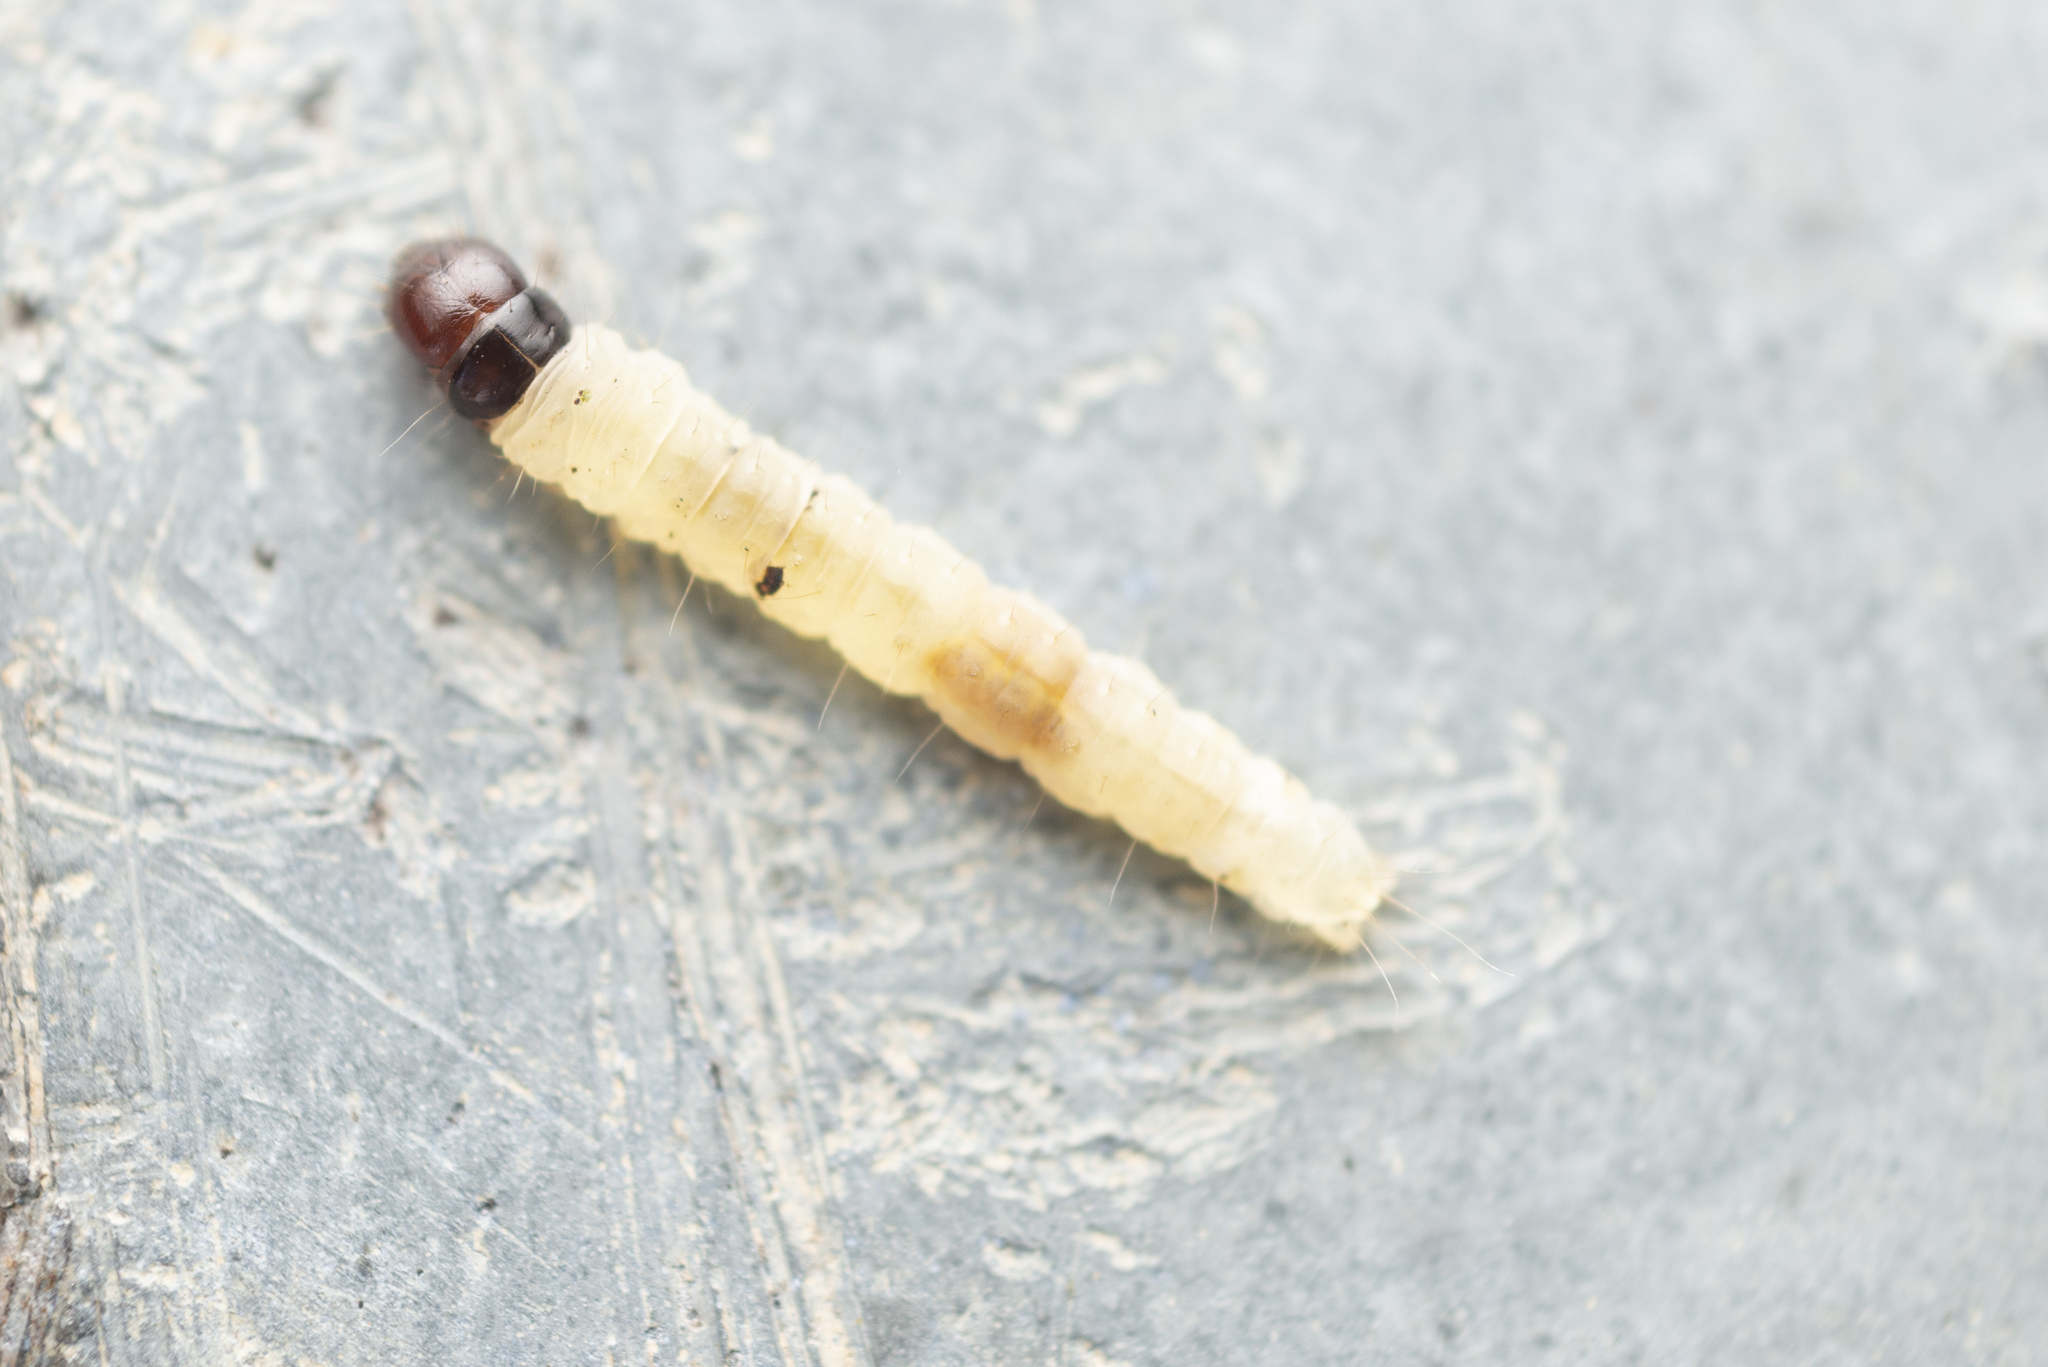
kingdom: Animalia
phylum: Arthropoda
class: Insecta
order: Lepidoptera
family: Peleopodidae
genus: Odites
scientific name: Odites ricinella
